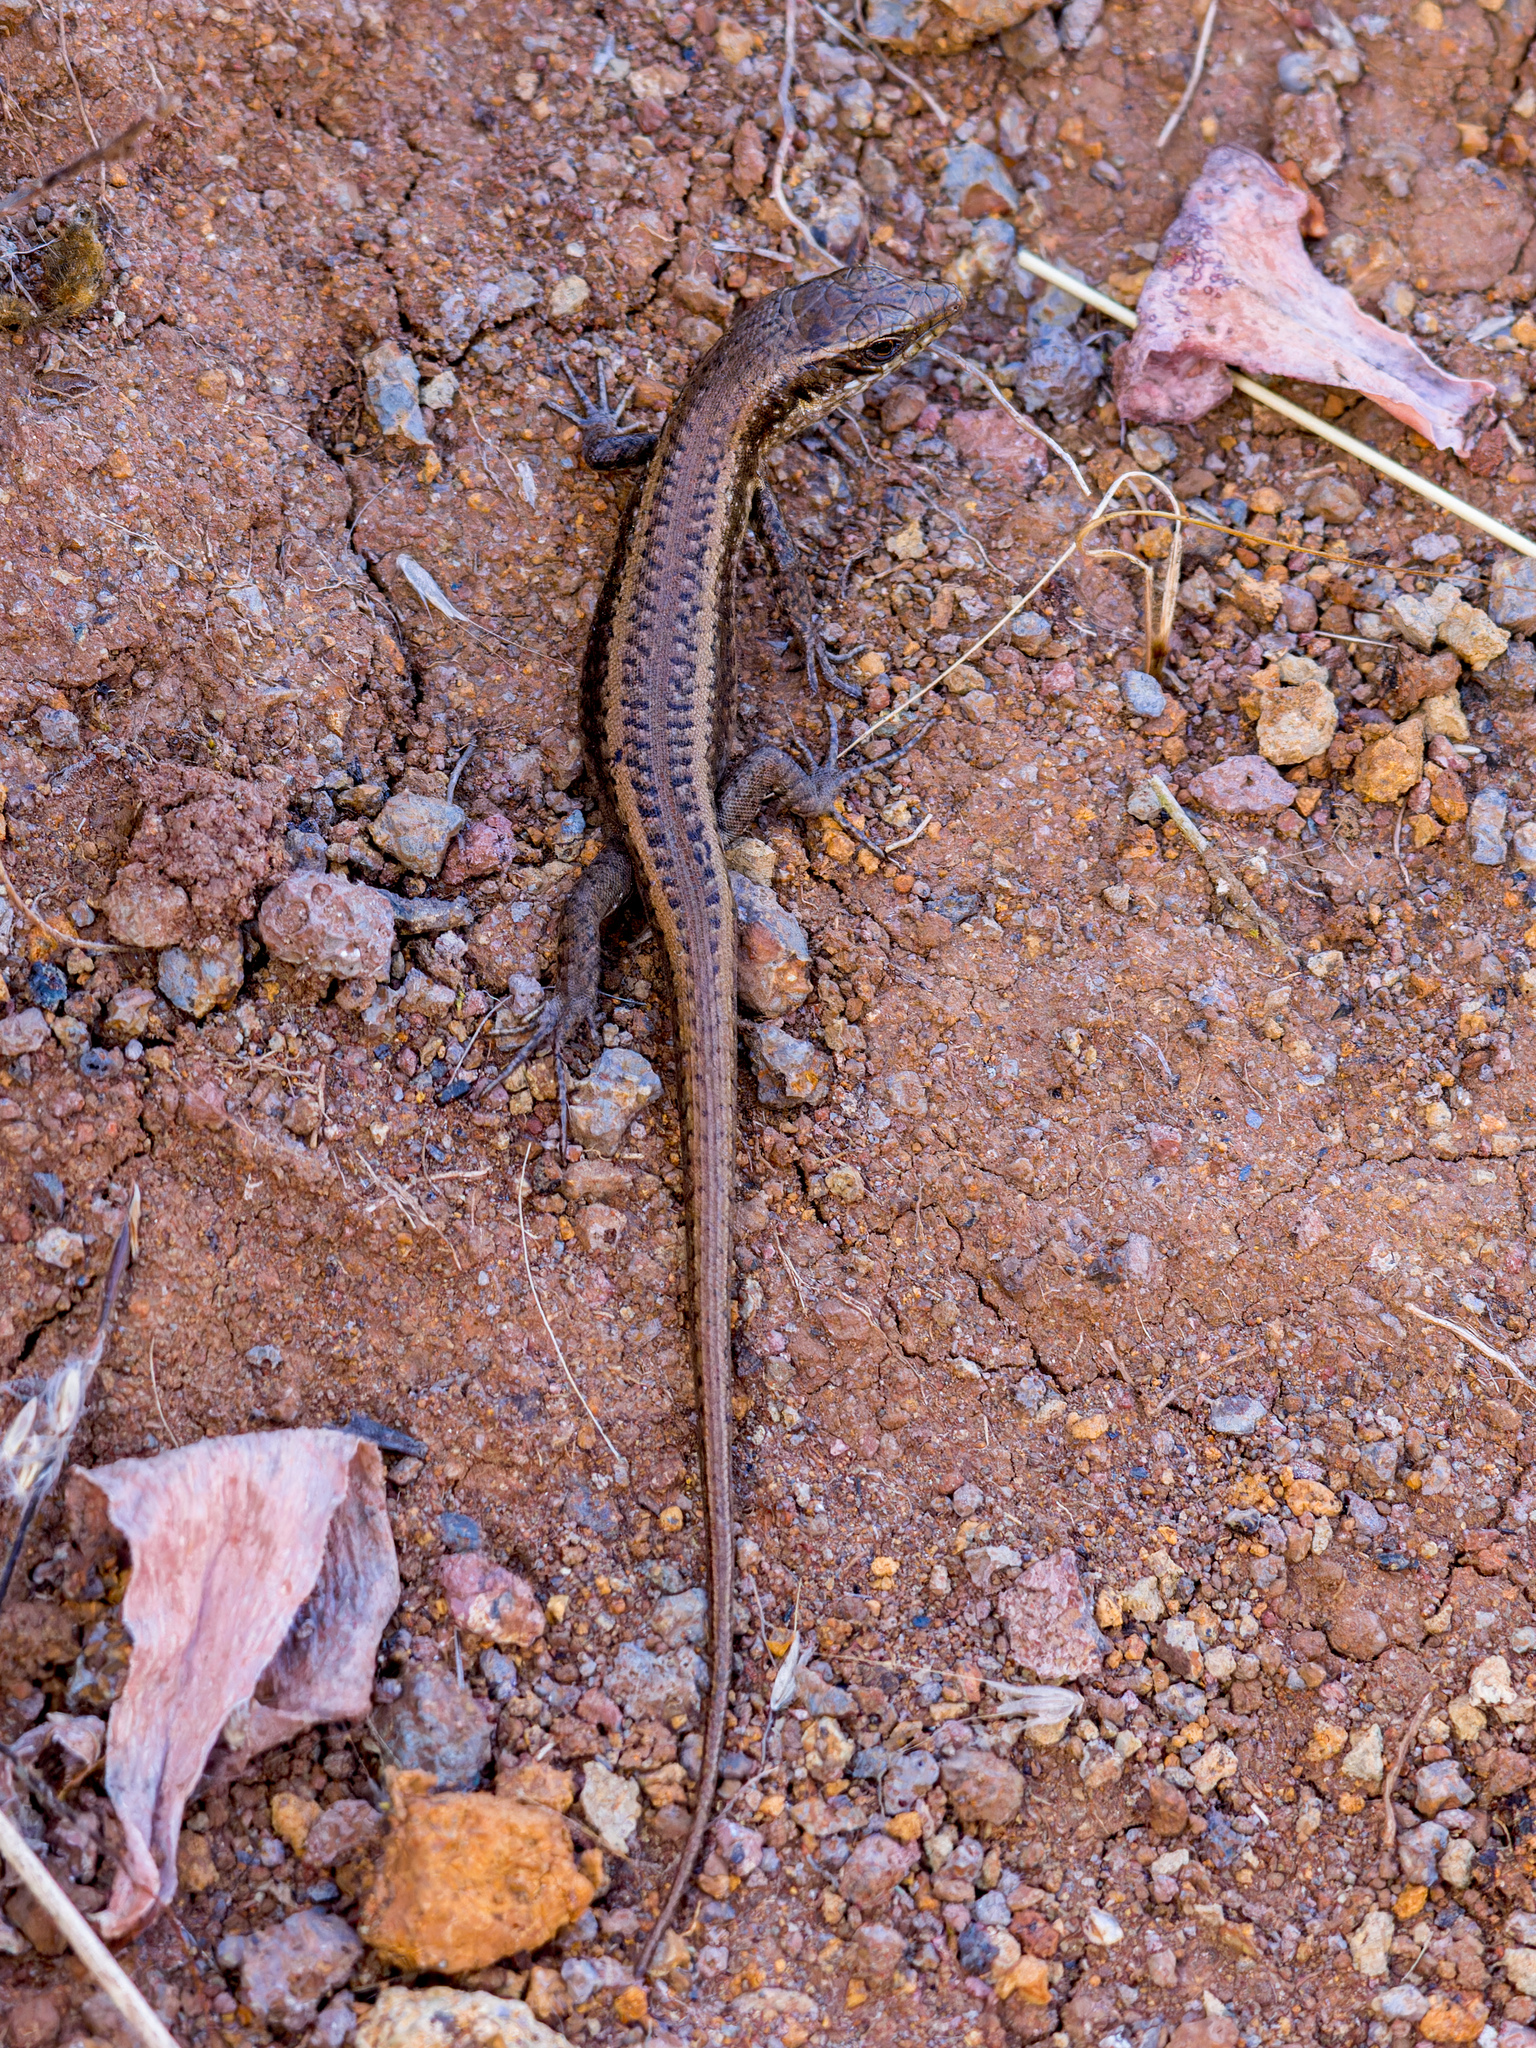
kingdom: Animalia
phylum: Chordata
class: Squamata
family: Scincidae
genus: Chioninia
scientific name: Chioninia fogoensis
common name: Fogo's mabuya
